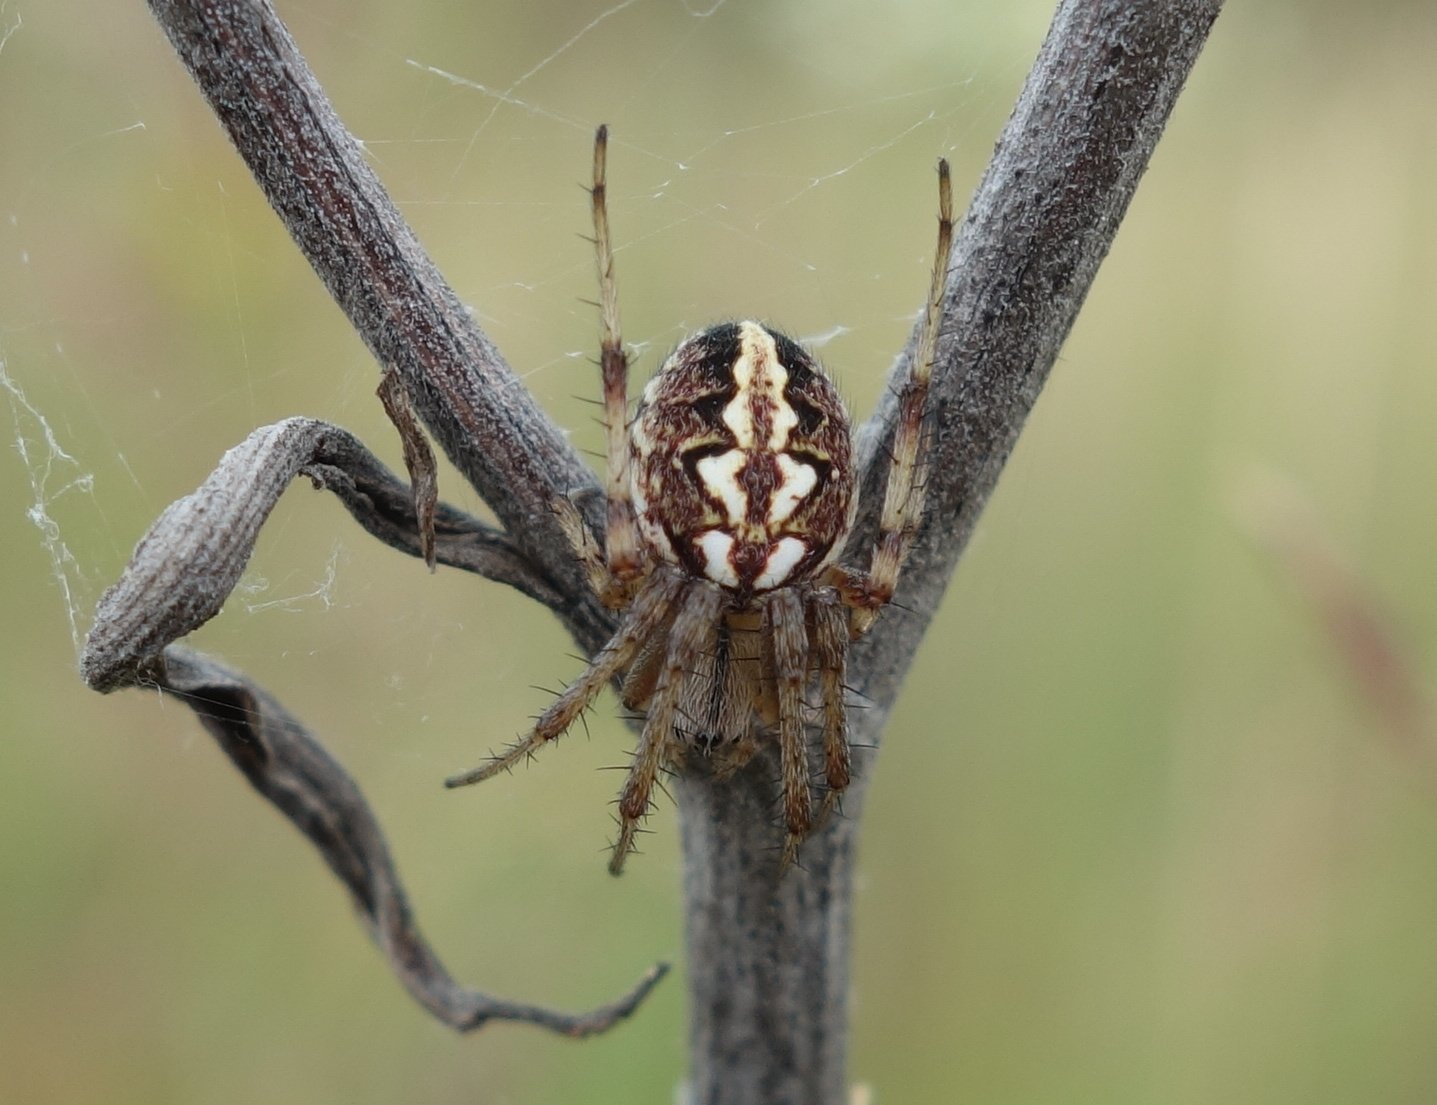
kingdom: Animalia
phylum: Arthropoda
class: Arachnida
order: Araneae
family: Araneidae
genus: Neoscona
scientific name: Neoscona adianta
